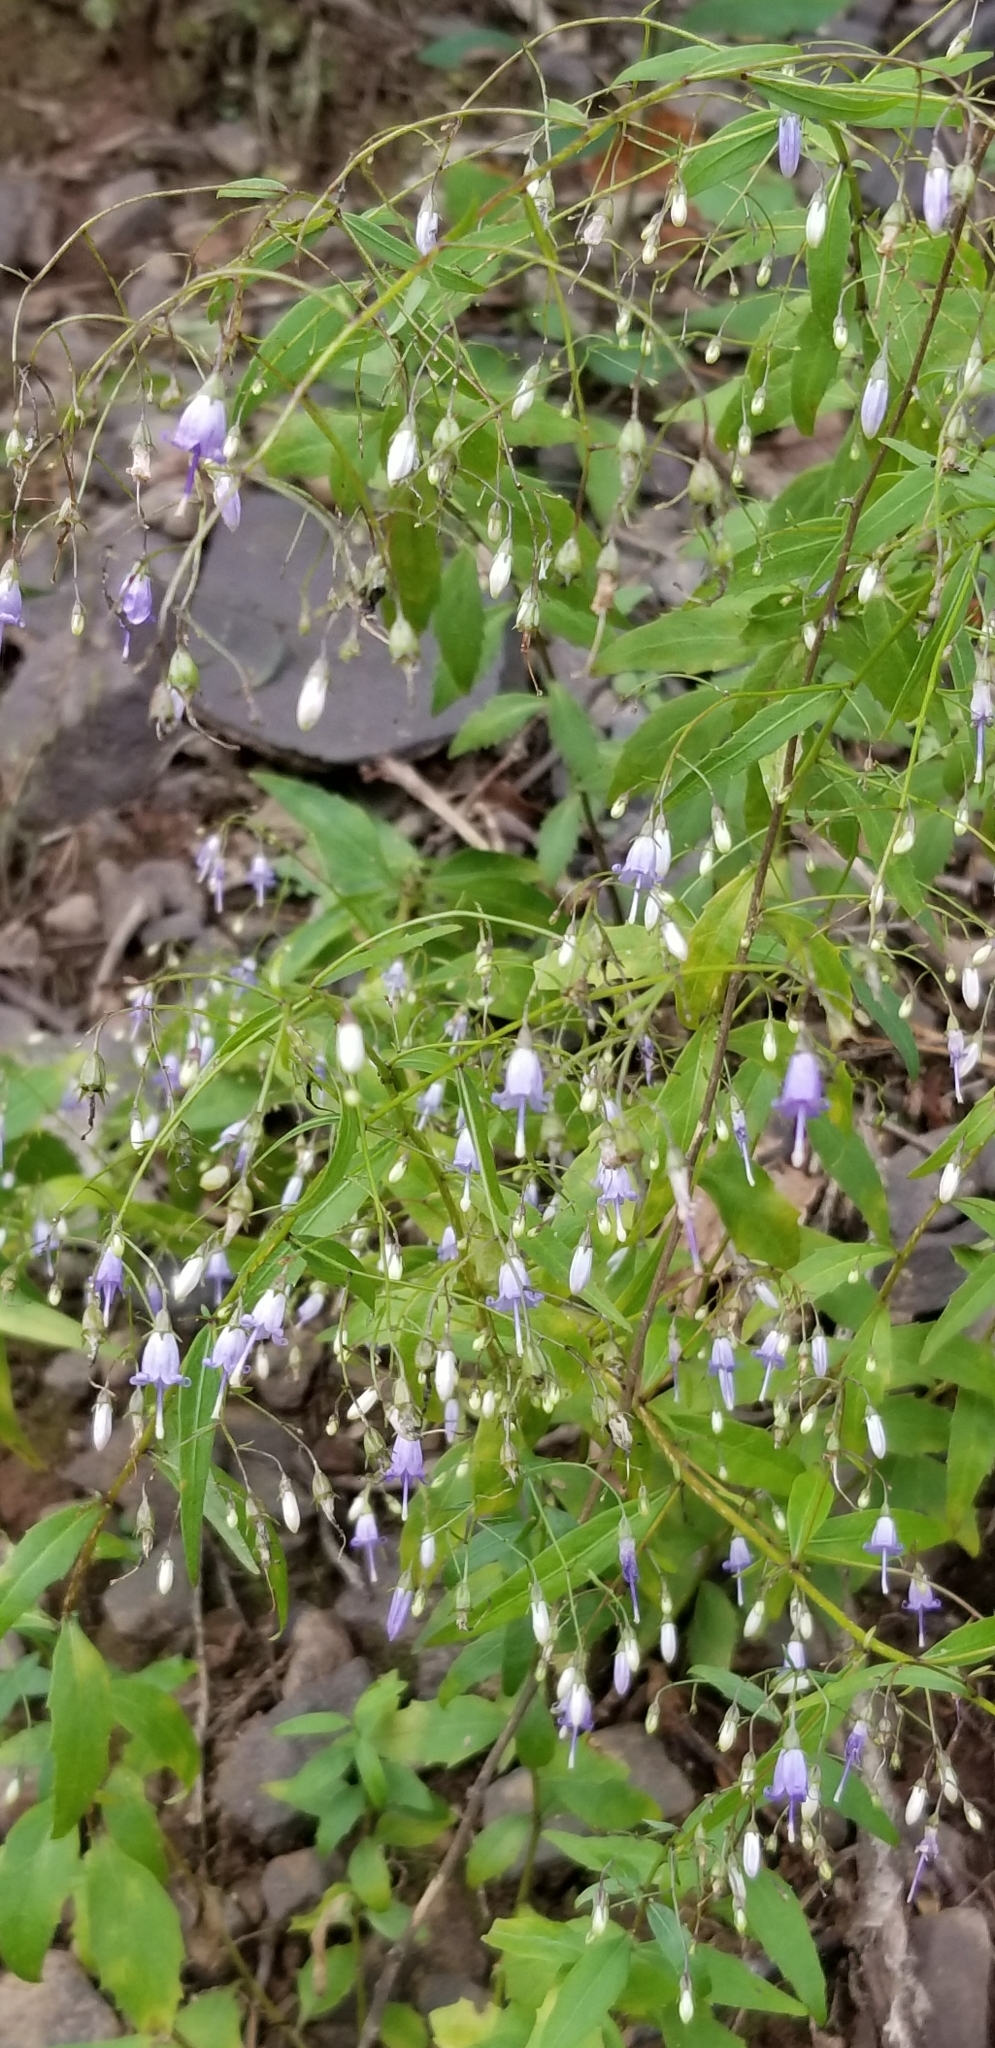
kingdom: Plantae
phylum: Tracheophyta
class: Magnoliopsida
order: Asterales
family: Campanulaceae
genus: Campanula
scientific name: Campanula divaricata
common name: Appalachian bellflower
